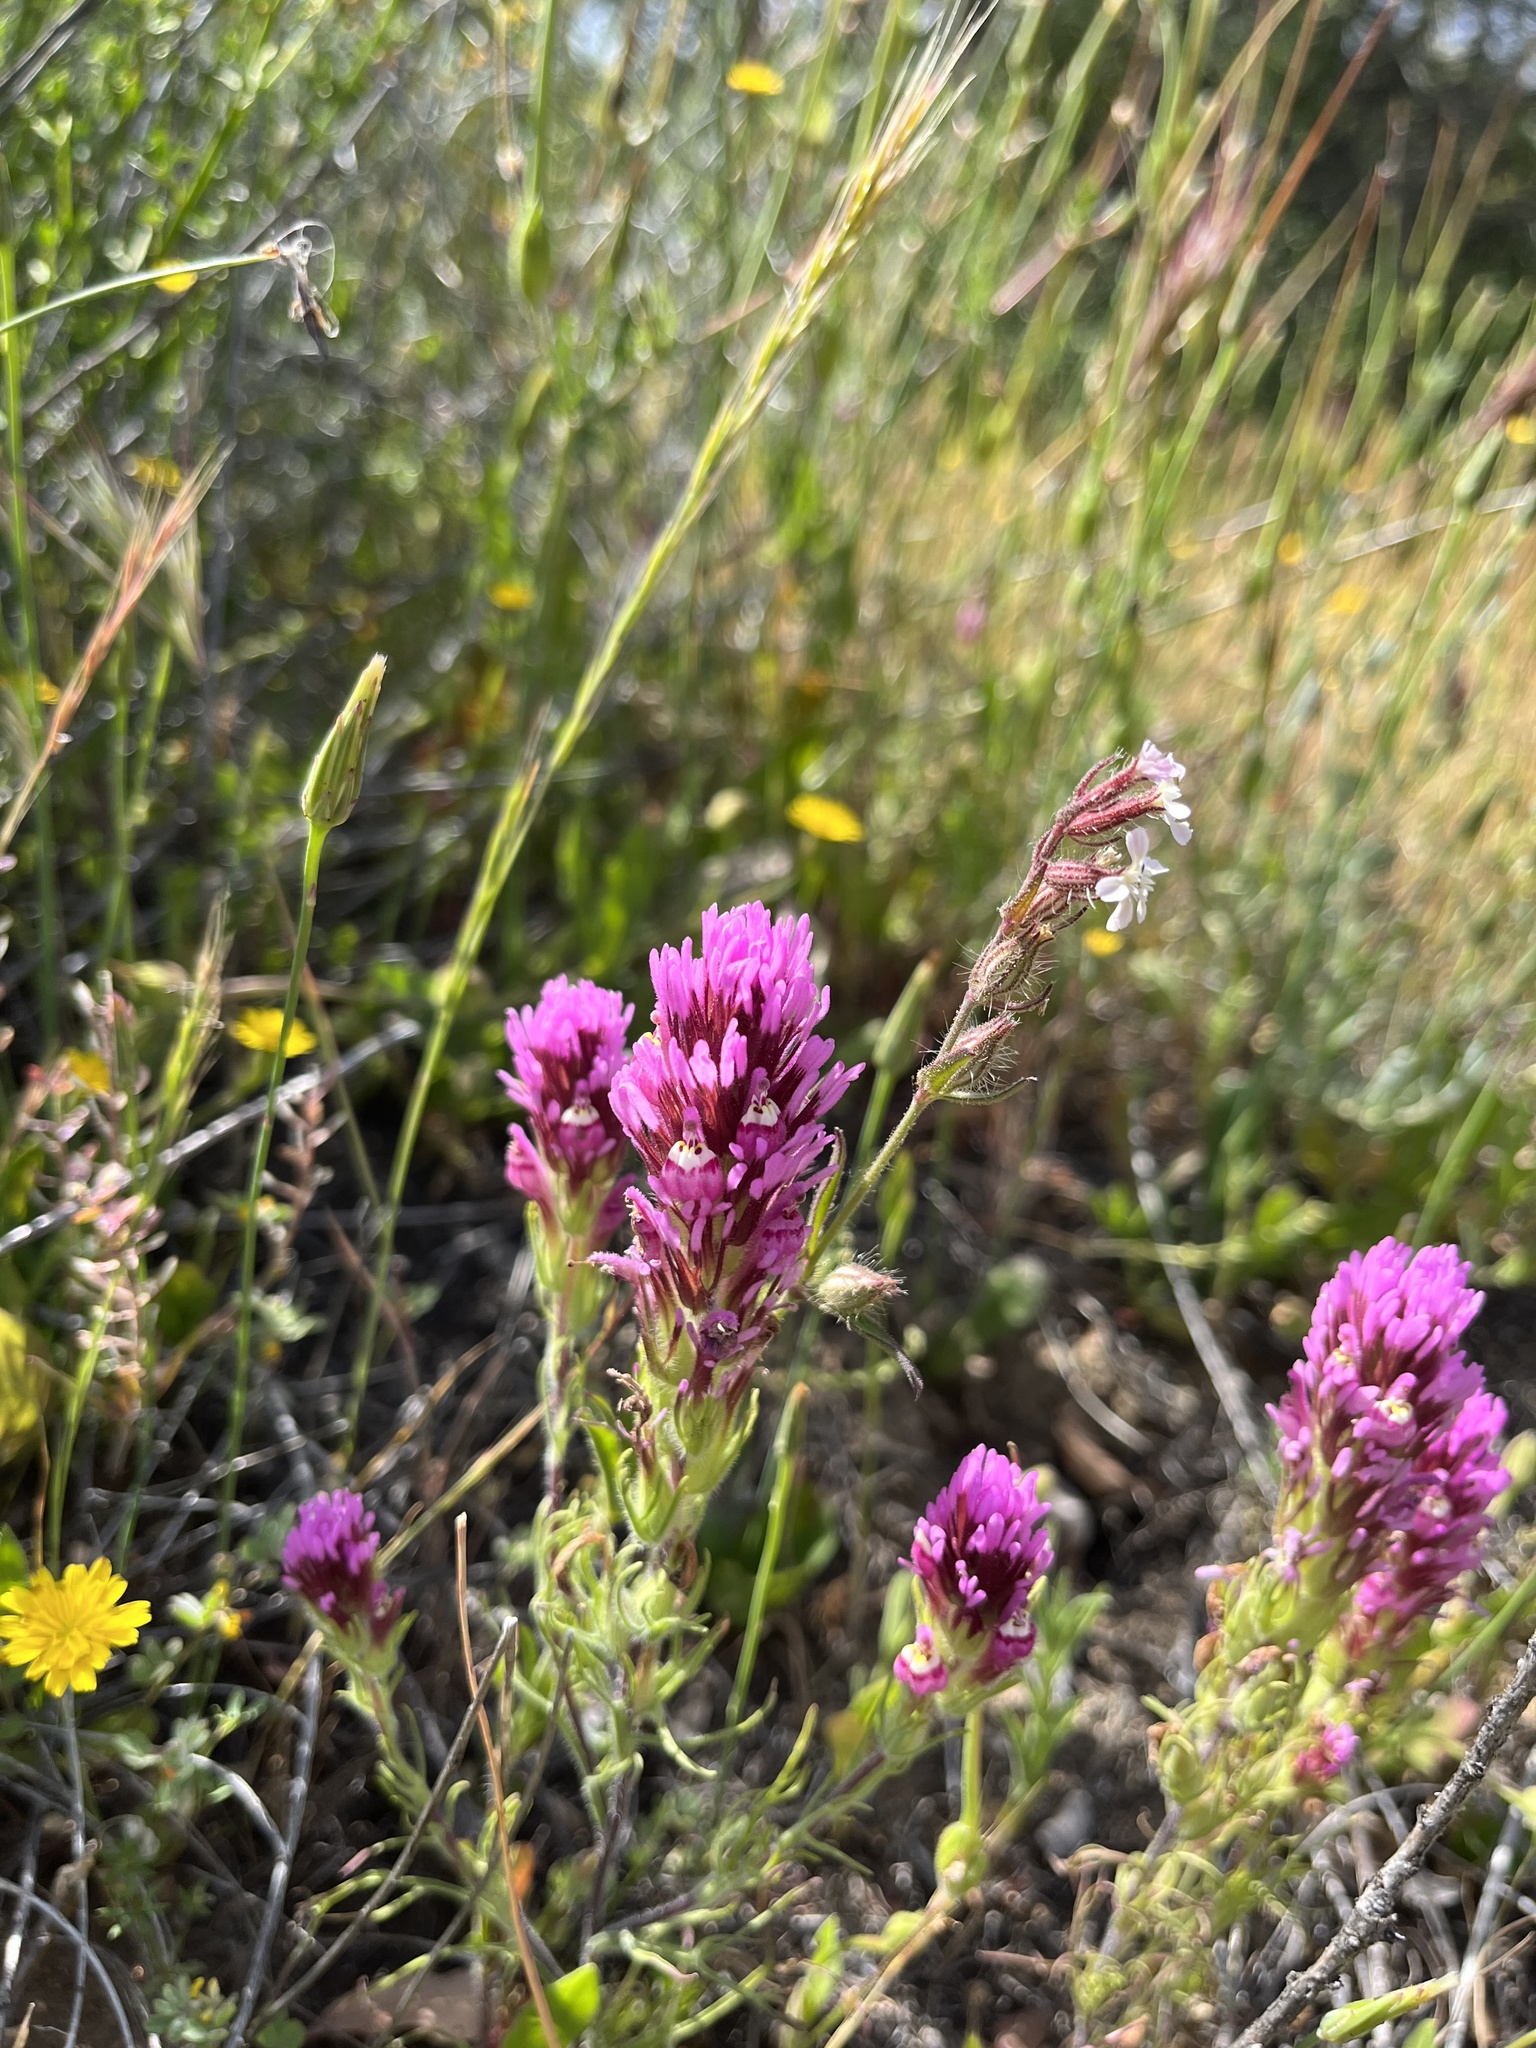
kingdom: Plantae
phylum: Tracheophyta
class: Magnoliopsida
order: Lamiales
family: Orobanchaceae
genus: Castilleja
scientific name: Castilleja exserta
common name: Purple owl-clover
